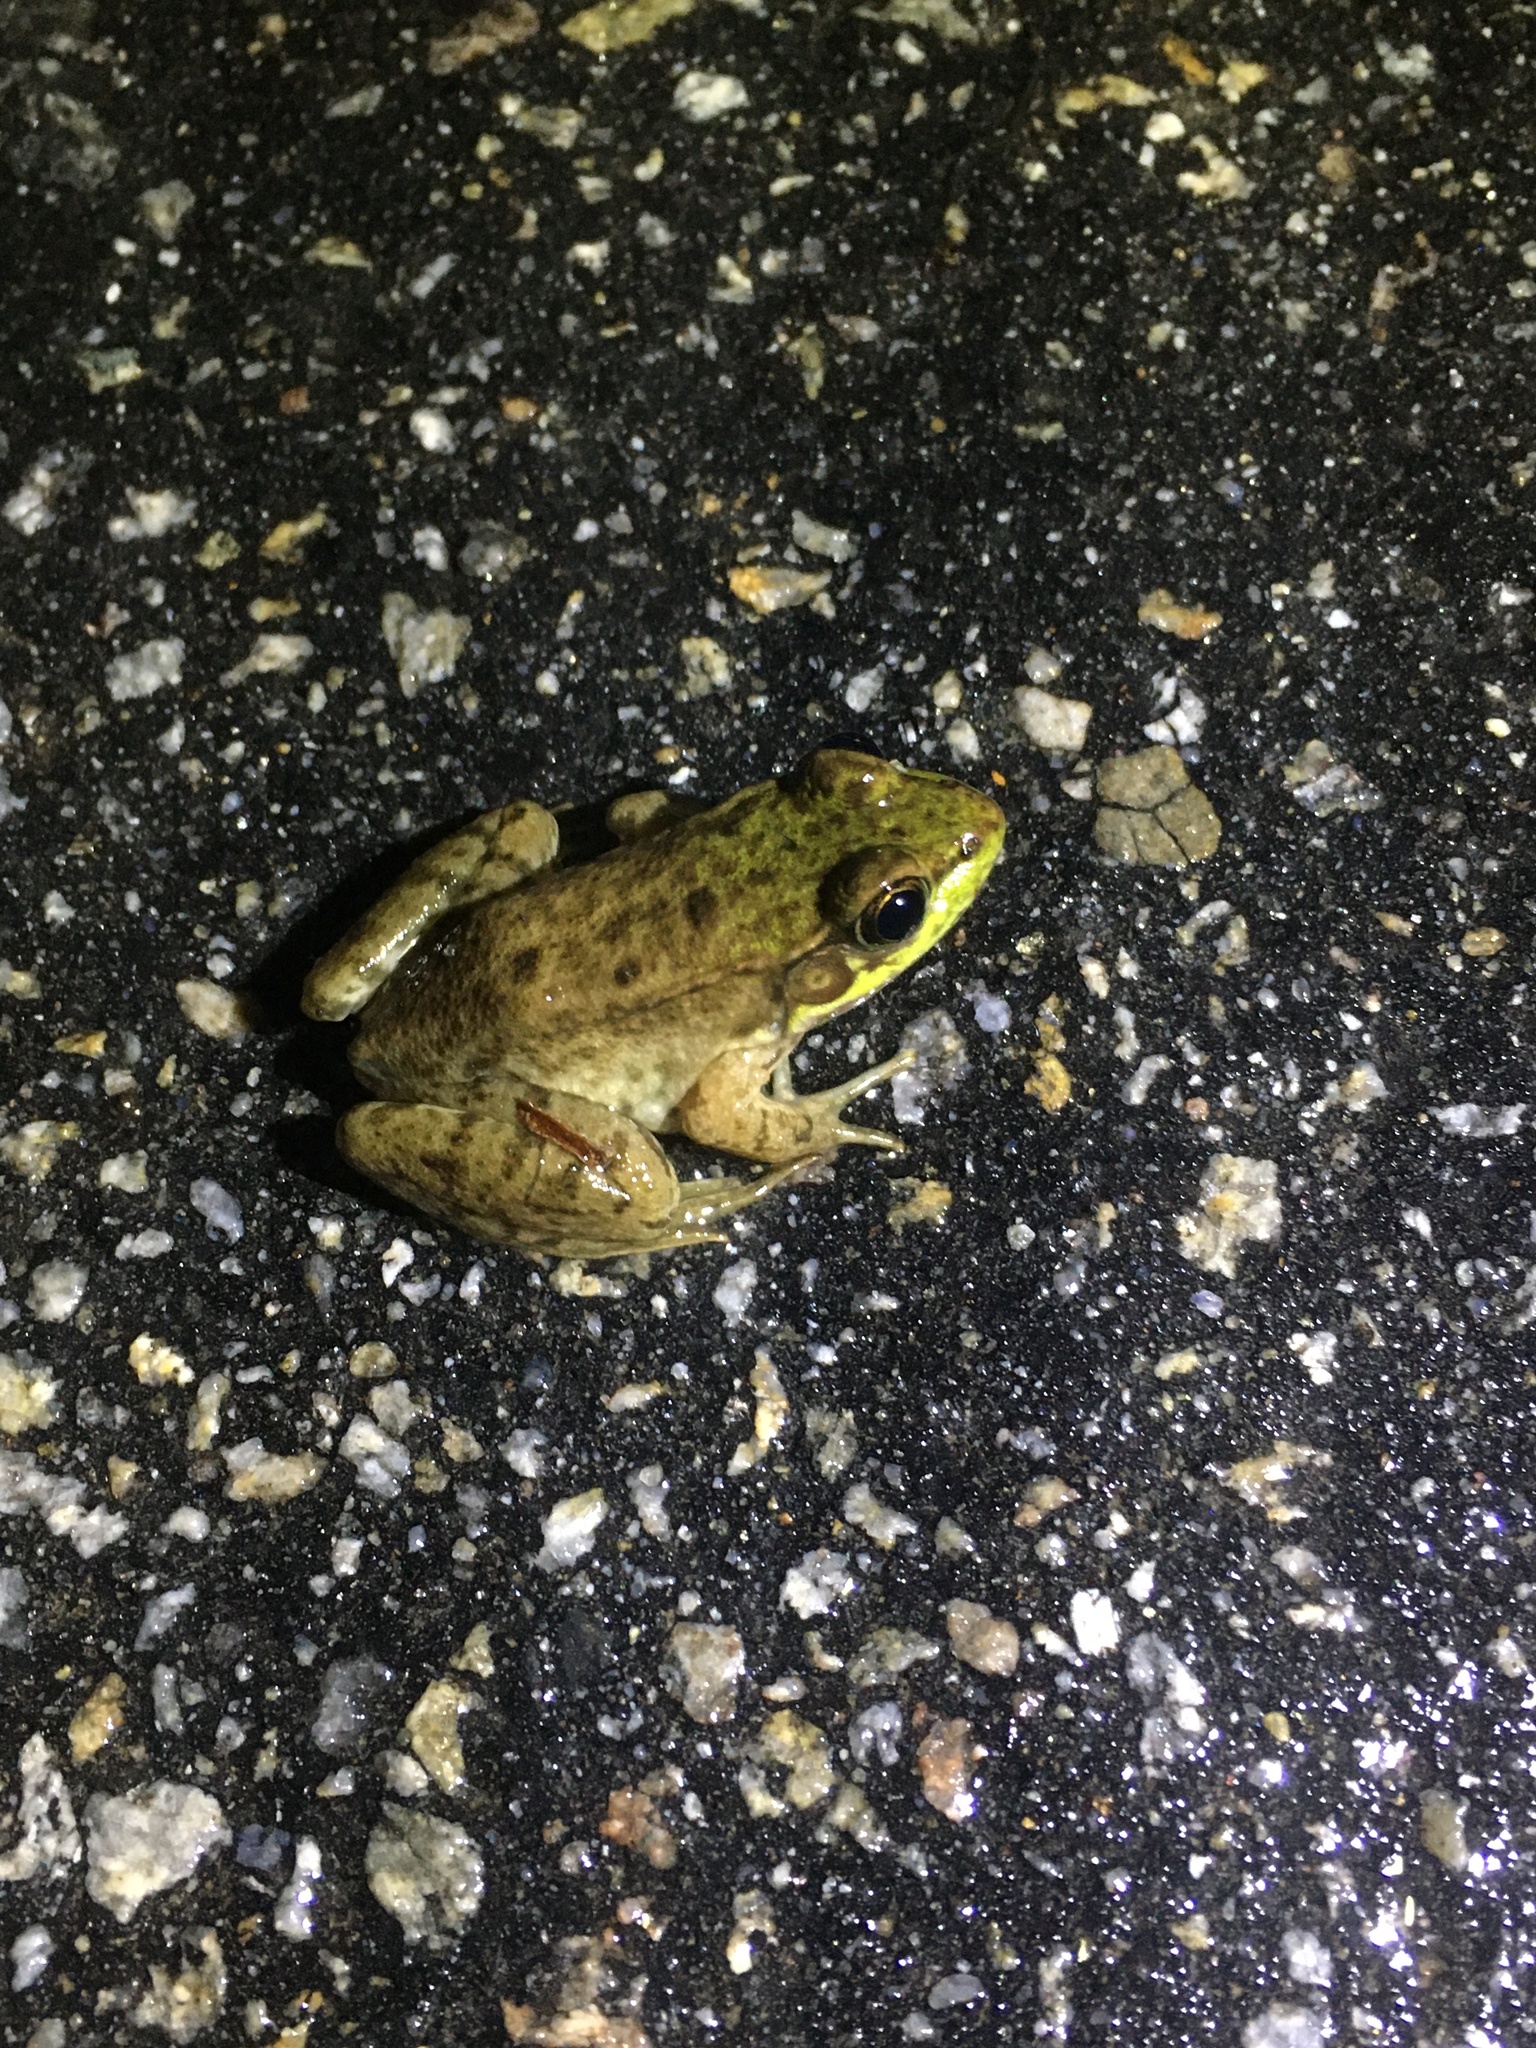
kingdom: Animalia
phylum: Chordata
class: Amphibia
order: Anura
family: Ranidae
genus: Lithobates
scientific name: Lithobates clamitans
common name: Green frog
